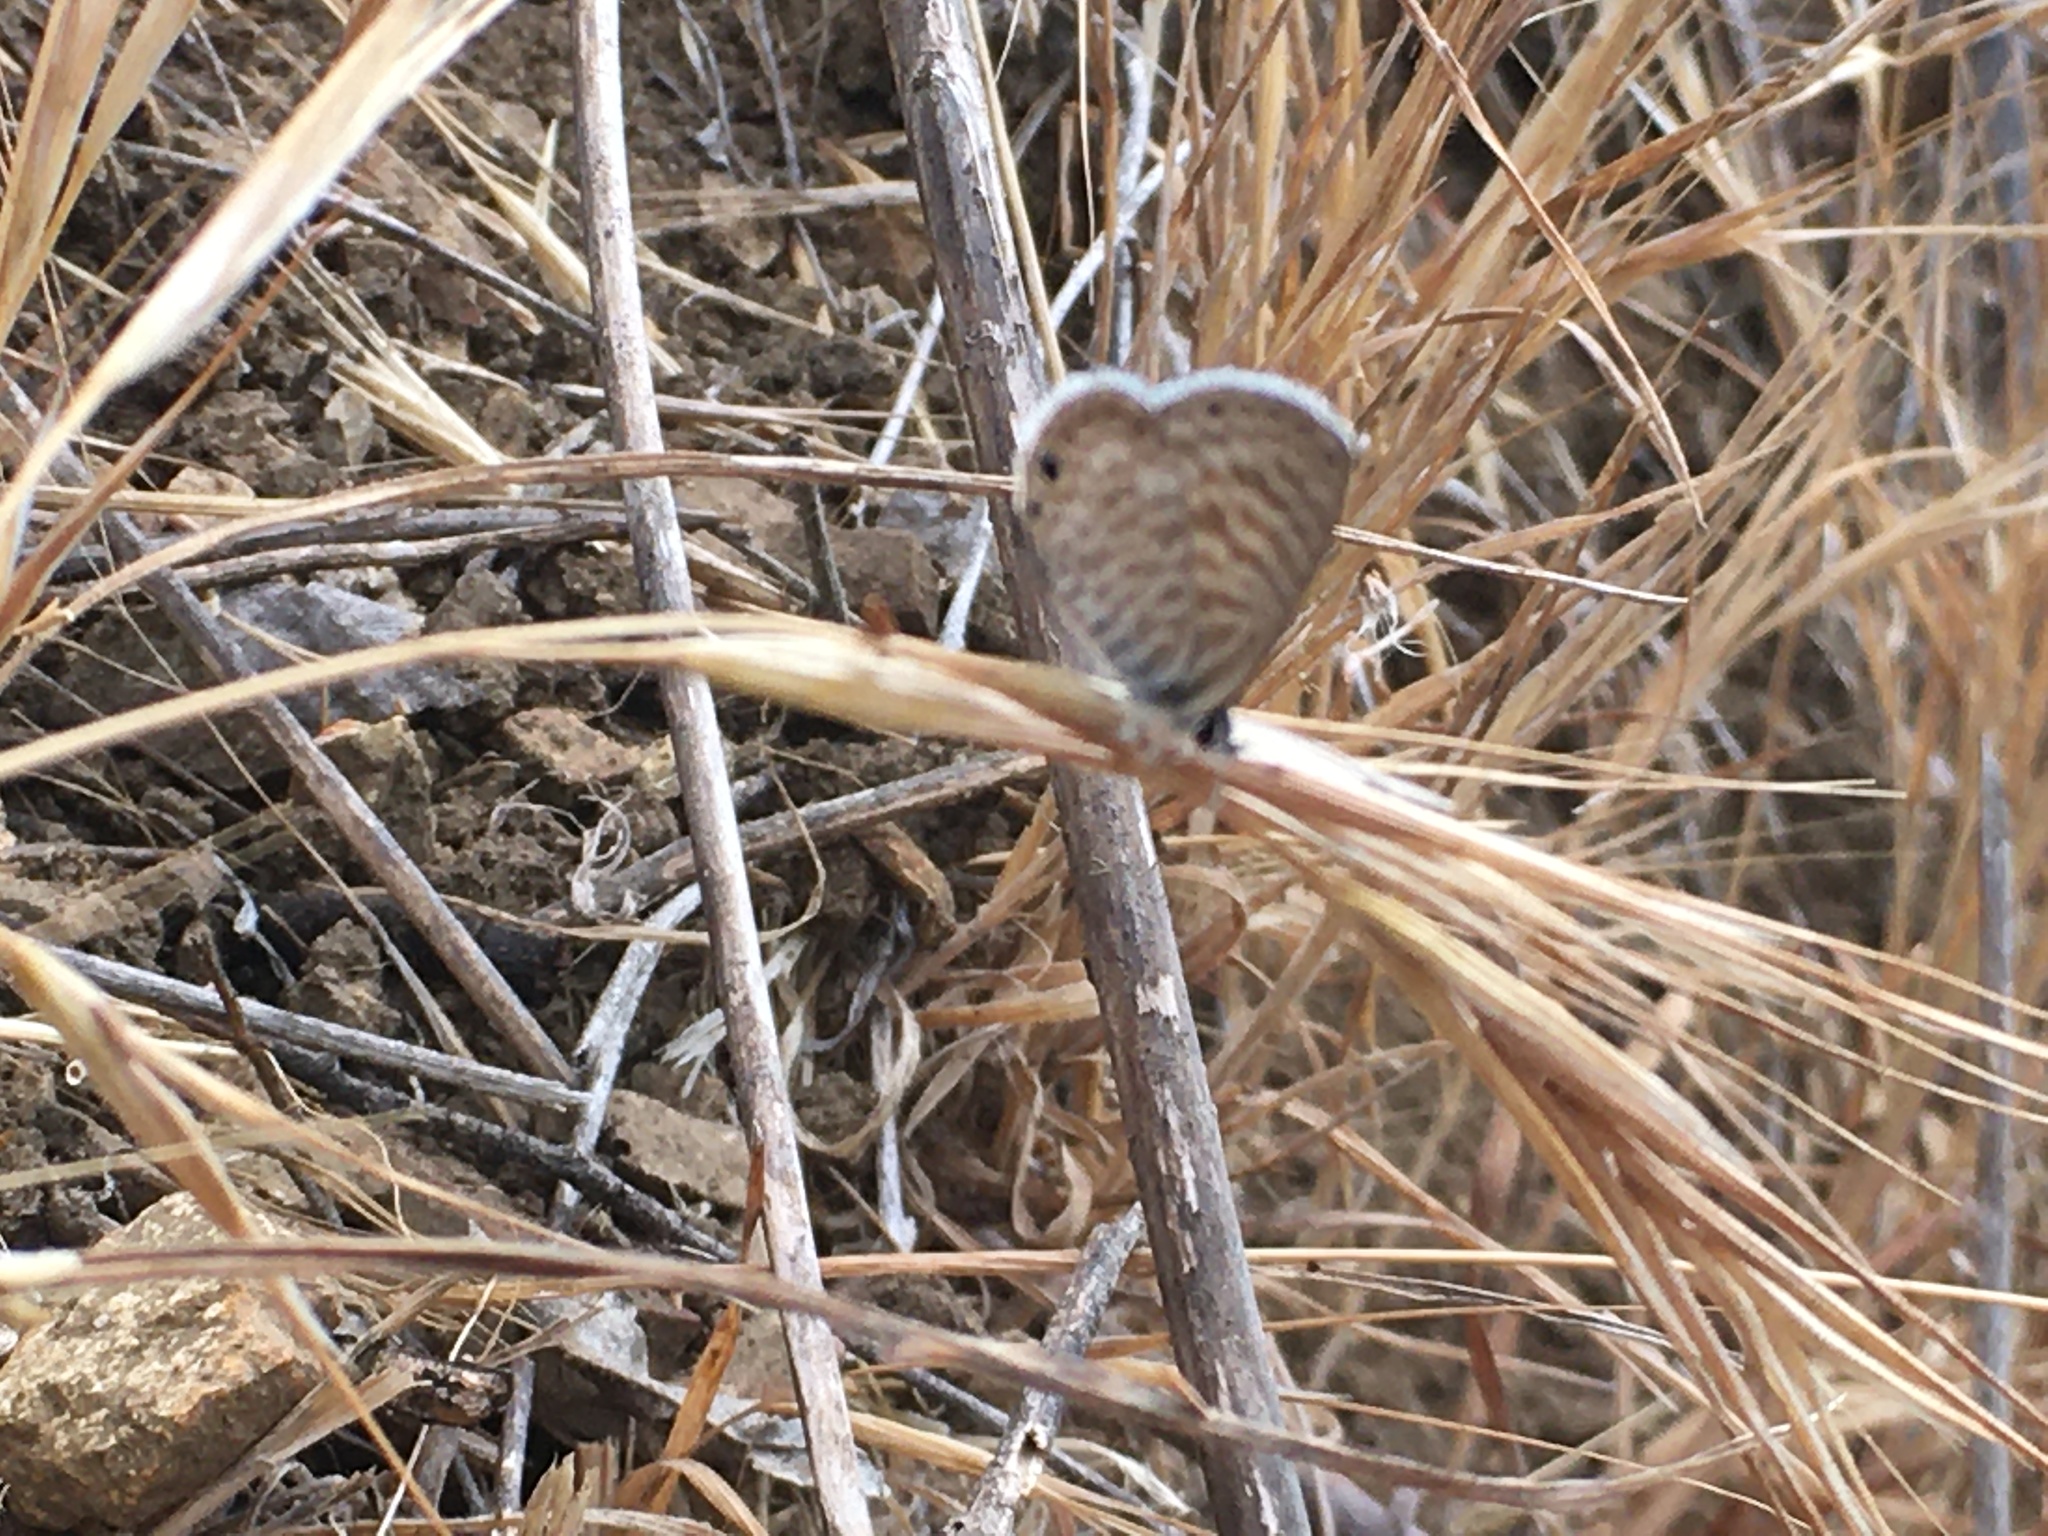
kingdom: Animalia
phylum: Arthropoda
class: Insecta
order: Lepidoptera
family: Lycaenidae
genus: Leptotes
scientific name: Leptotes marina
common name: Marine blue
